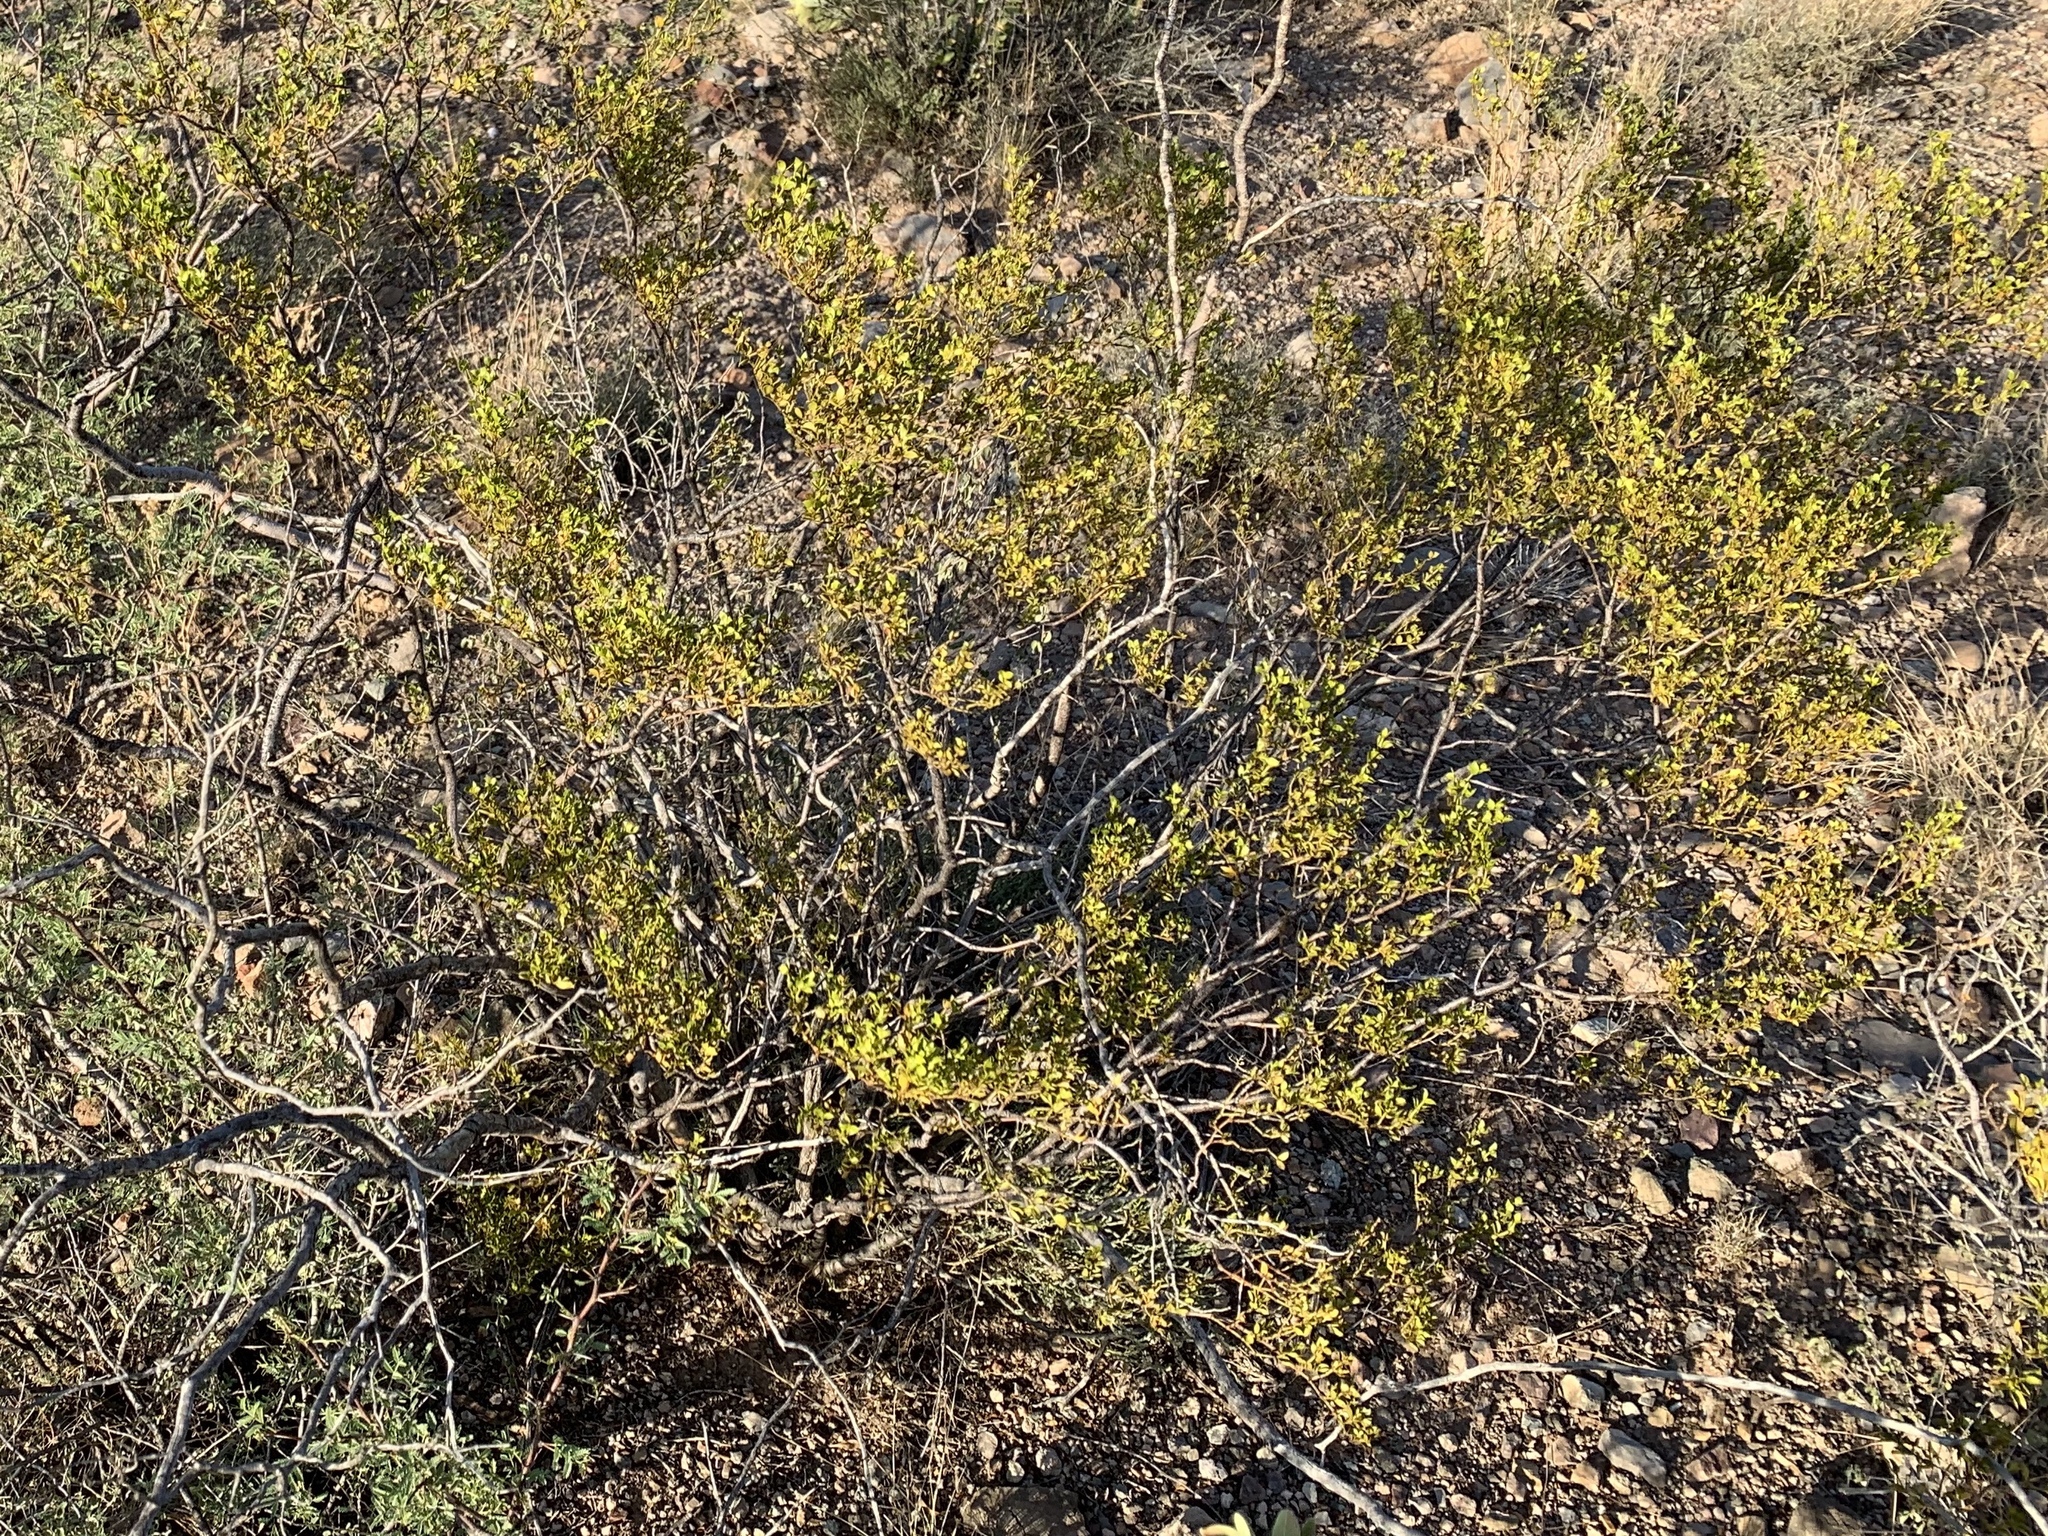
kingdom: Plantae
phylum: Tracheophyta
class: Magnoliopsida
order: Zygophyllales
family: Zygophyllaceae
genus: Larrea
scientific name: Larrea tridentata
